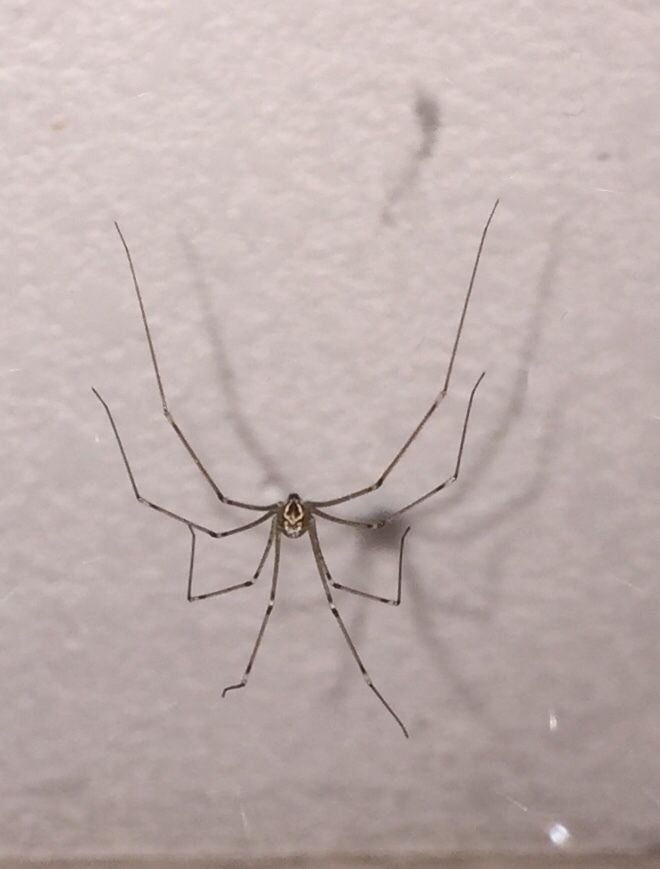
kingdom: Animalia
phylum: Arthropoda
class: Arachnida
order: Araneae
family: Pholcidae
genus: Holocnemus
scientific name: Holocnemus pluchei
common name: Marbled cellar spider
